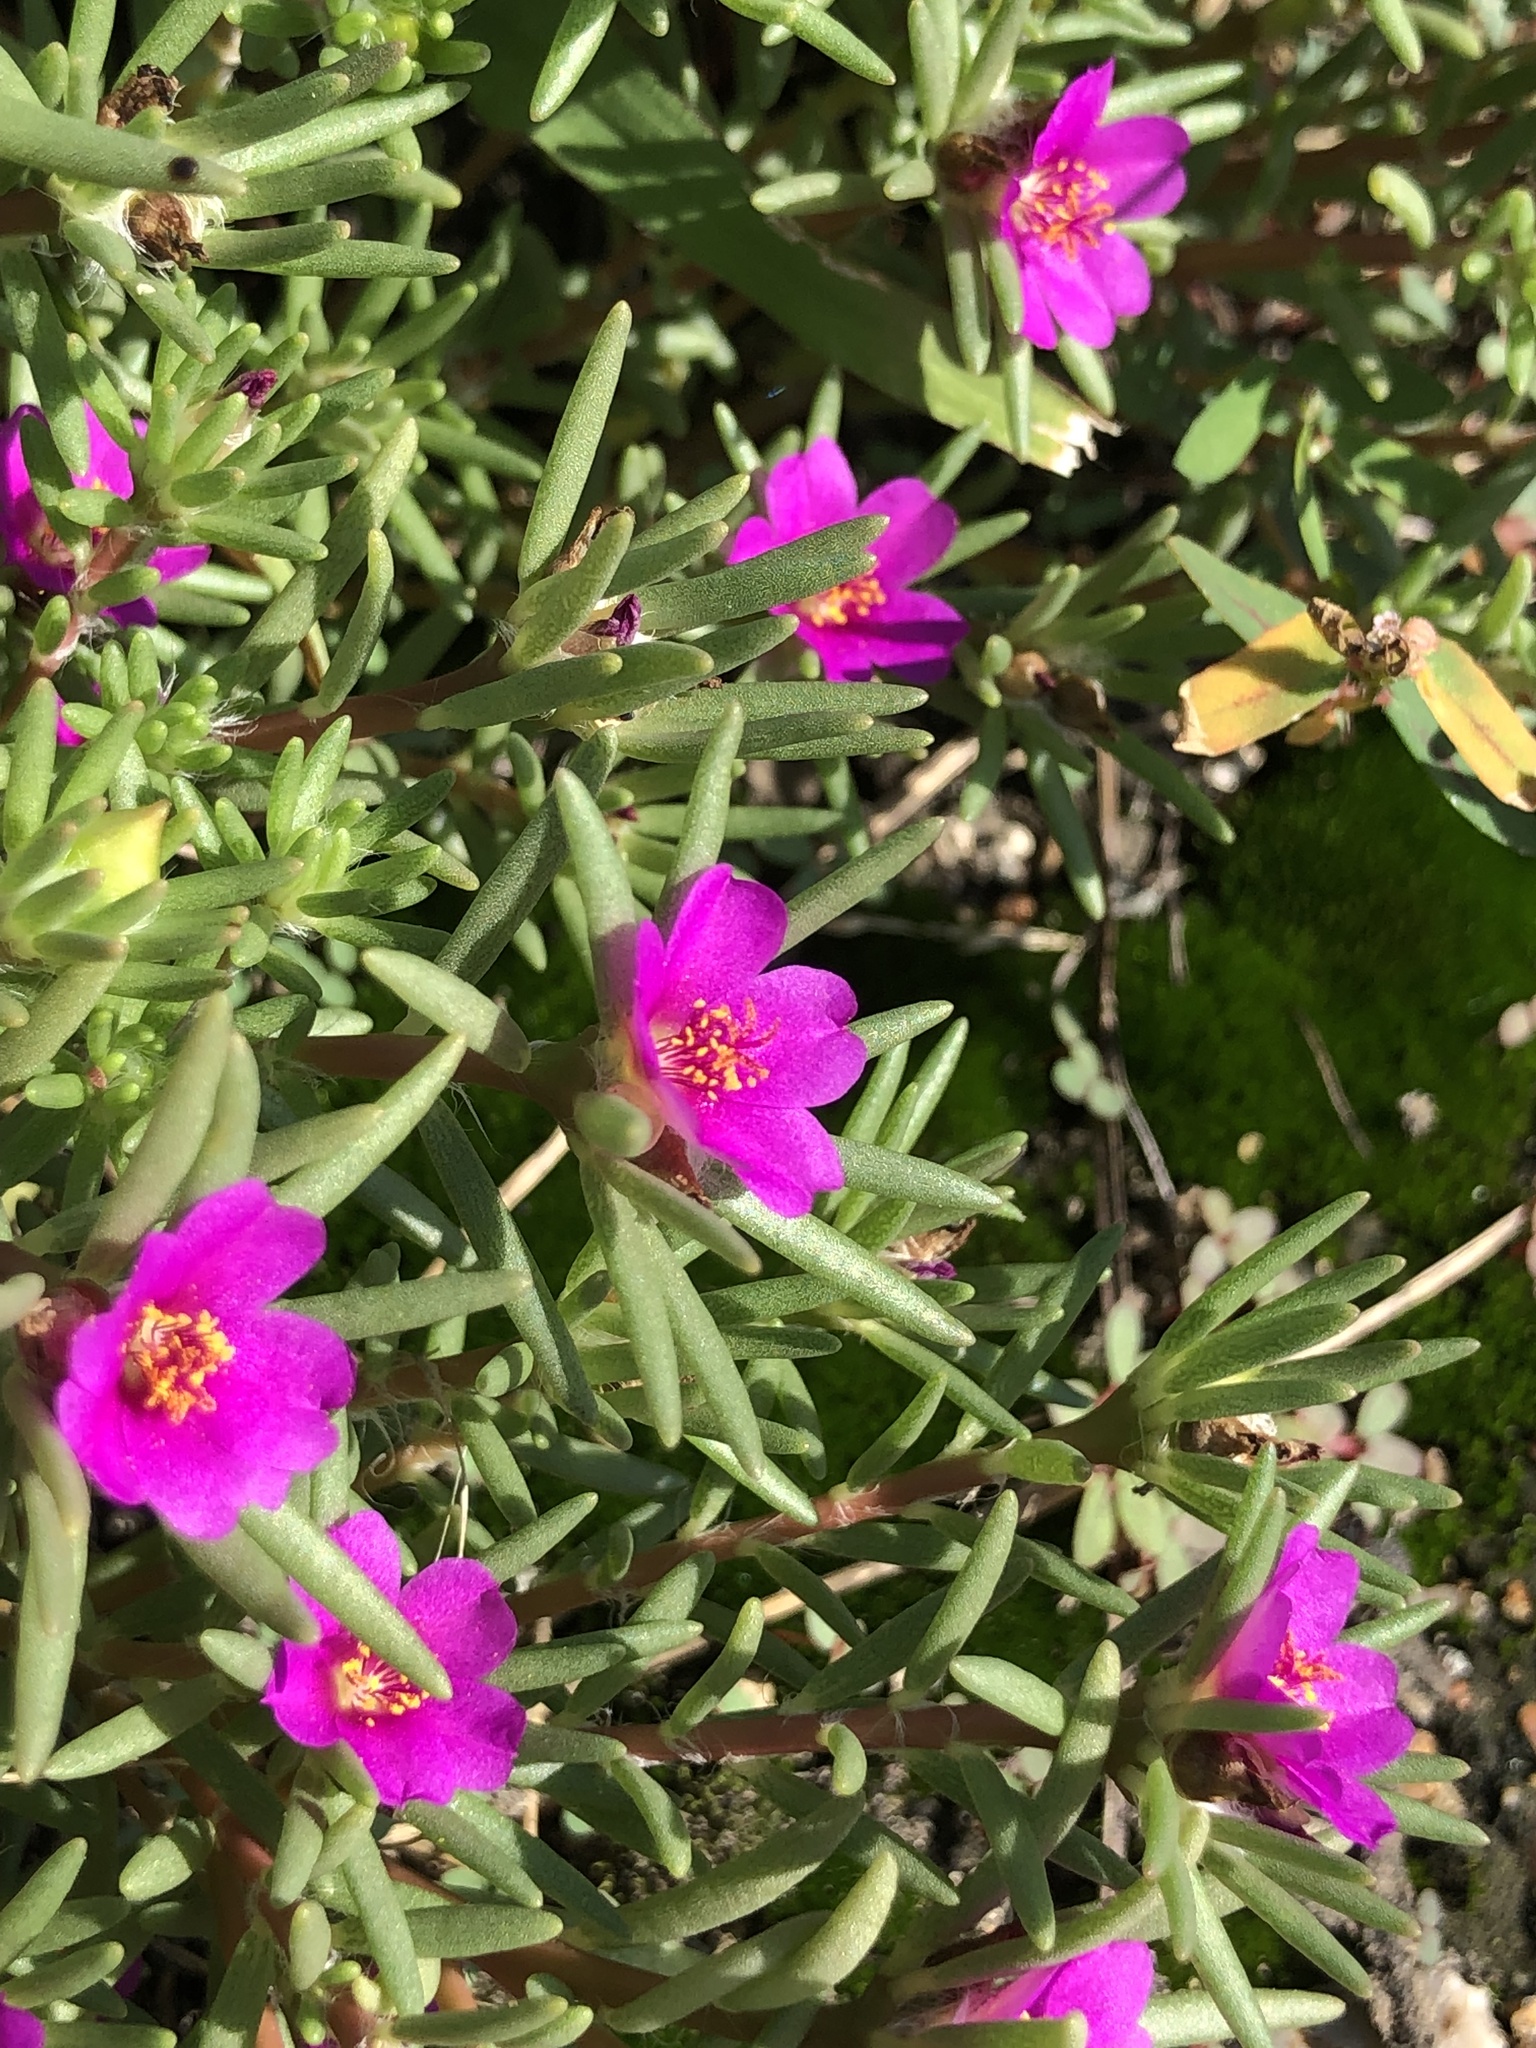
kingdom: Plantae
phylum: Tracheophyta
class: Magnoliopsida
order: Caryophyllales
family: Portulacaceae
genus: Portulaca
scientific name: Portulaca pilosa
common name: Kiss me quick
